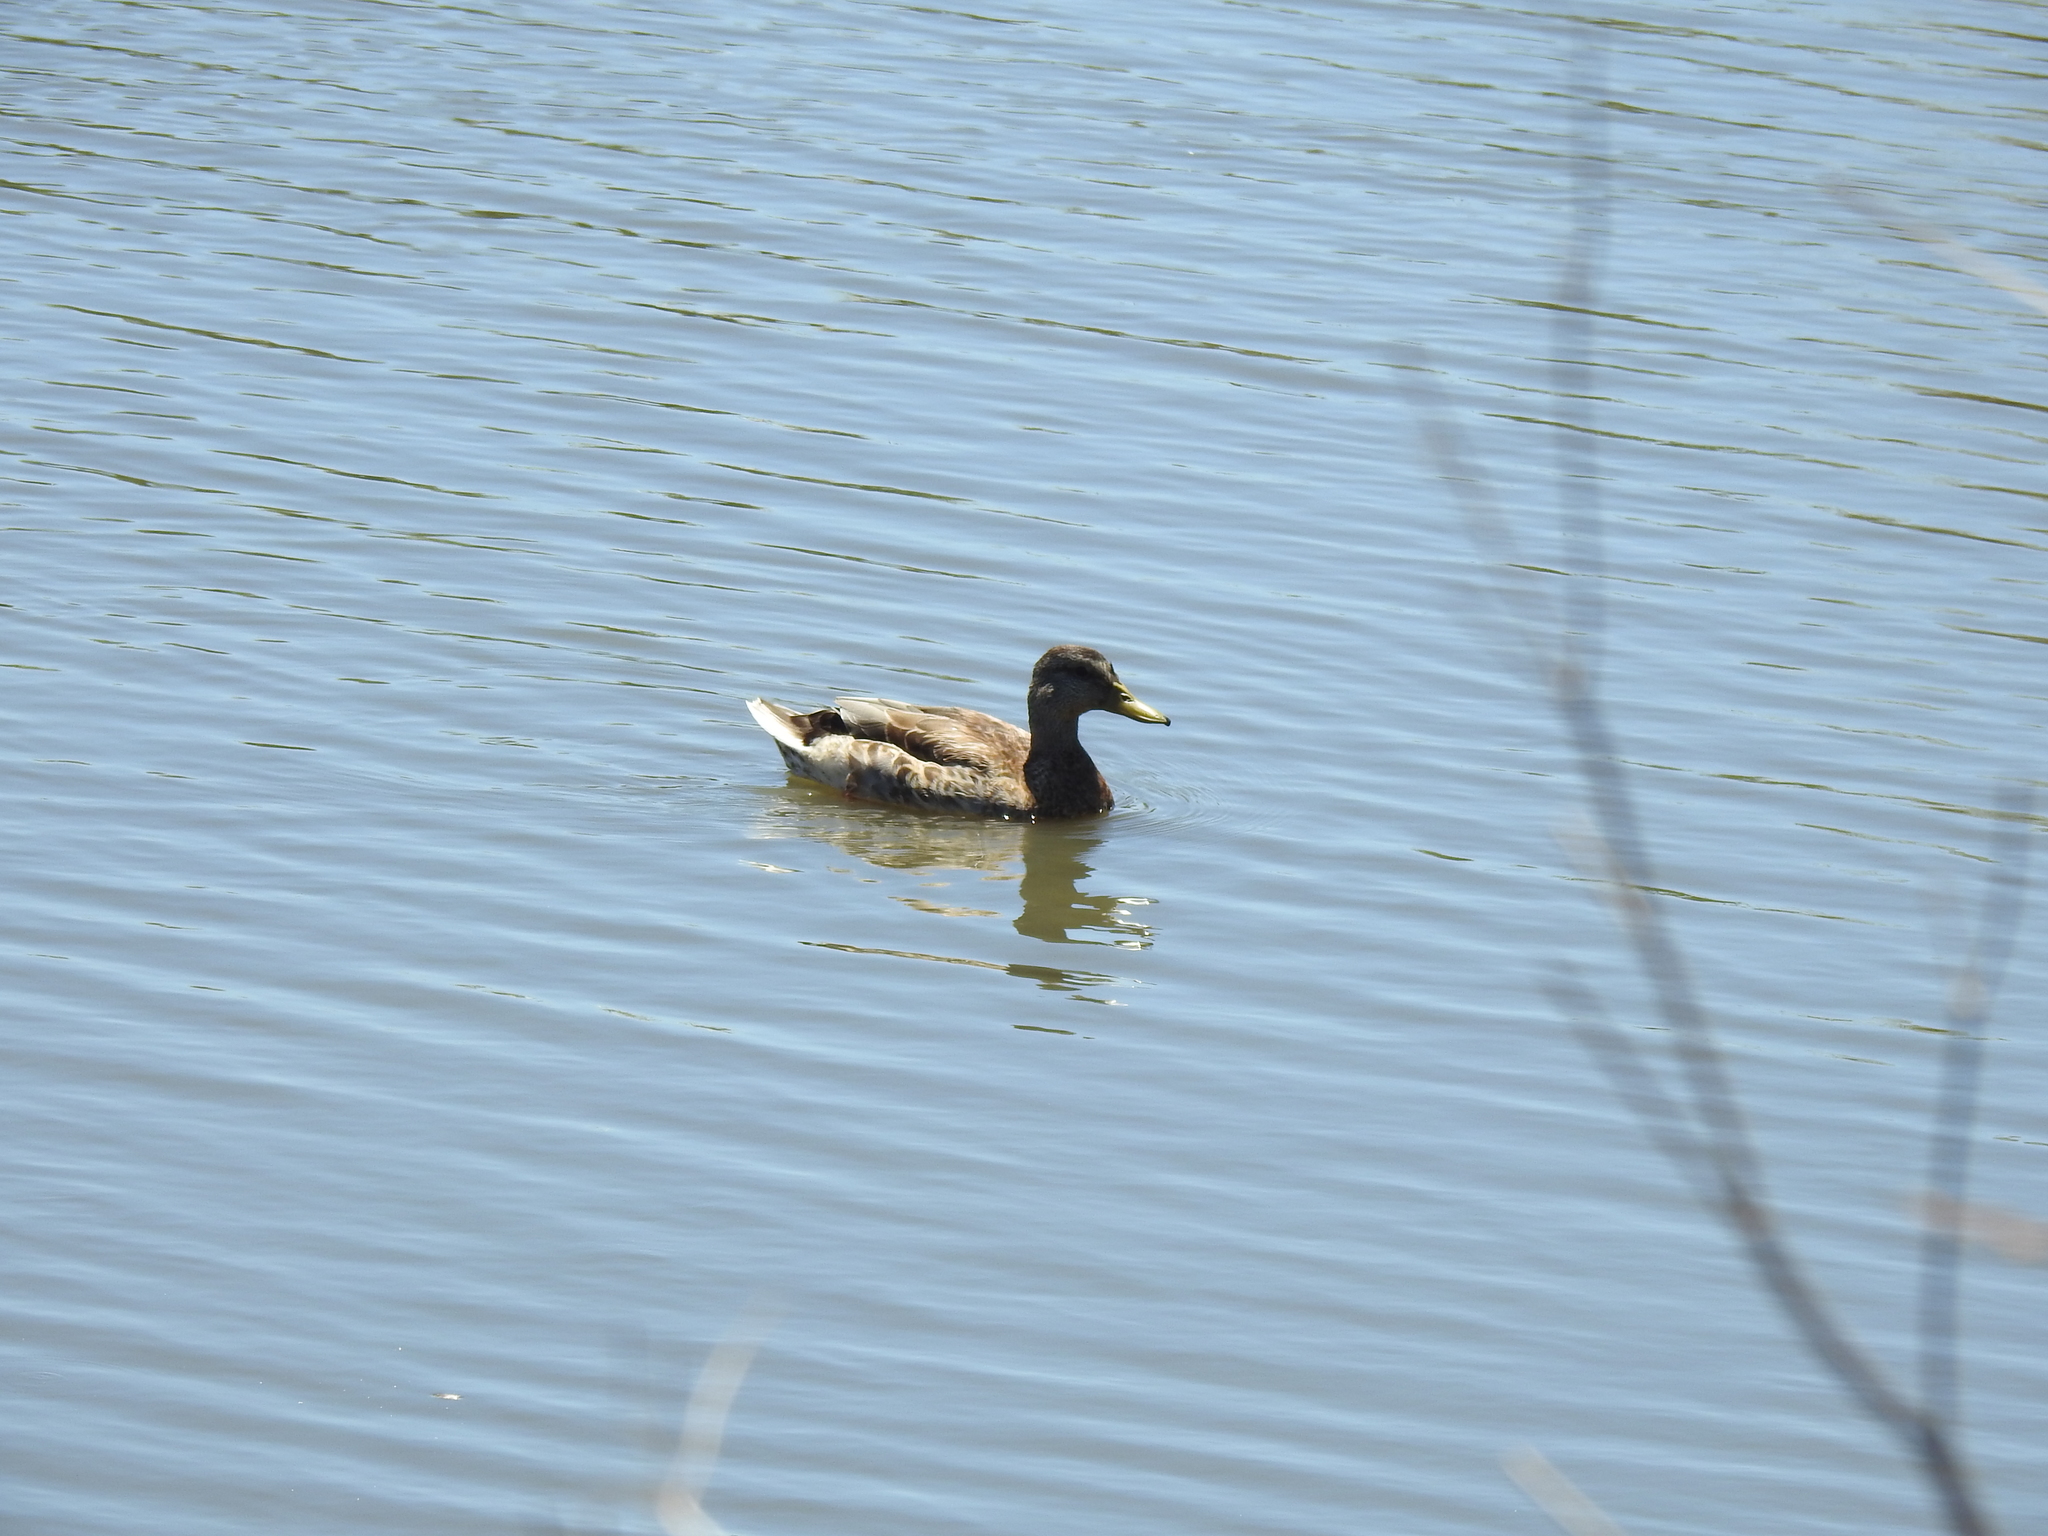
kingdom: Animalia
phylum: Chordata
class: Aves
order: Anseriformes
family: Anatidae
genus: Anas
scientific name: Anas platyrhynchos
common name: Mallard
